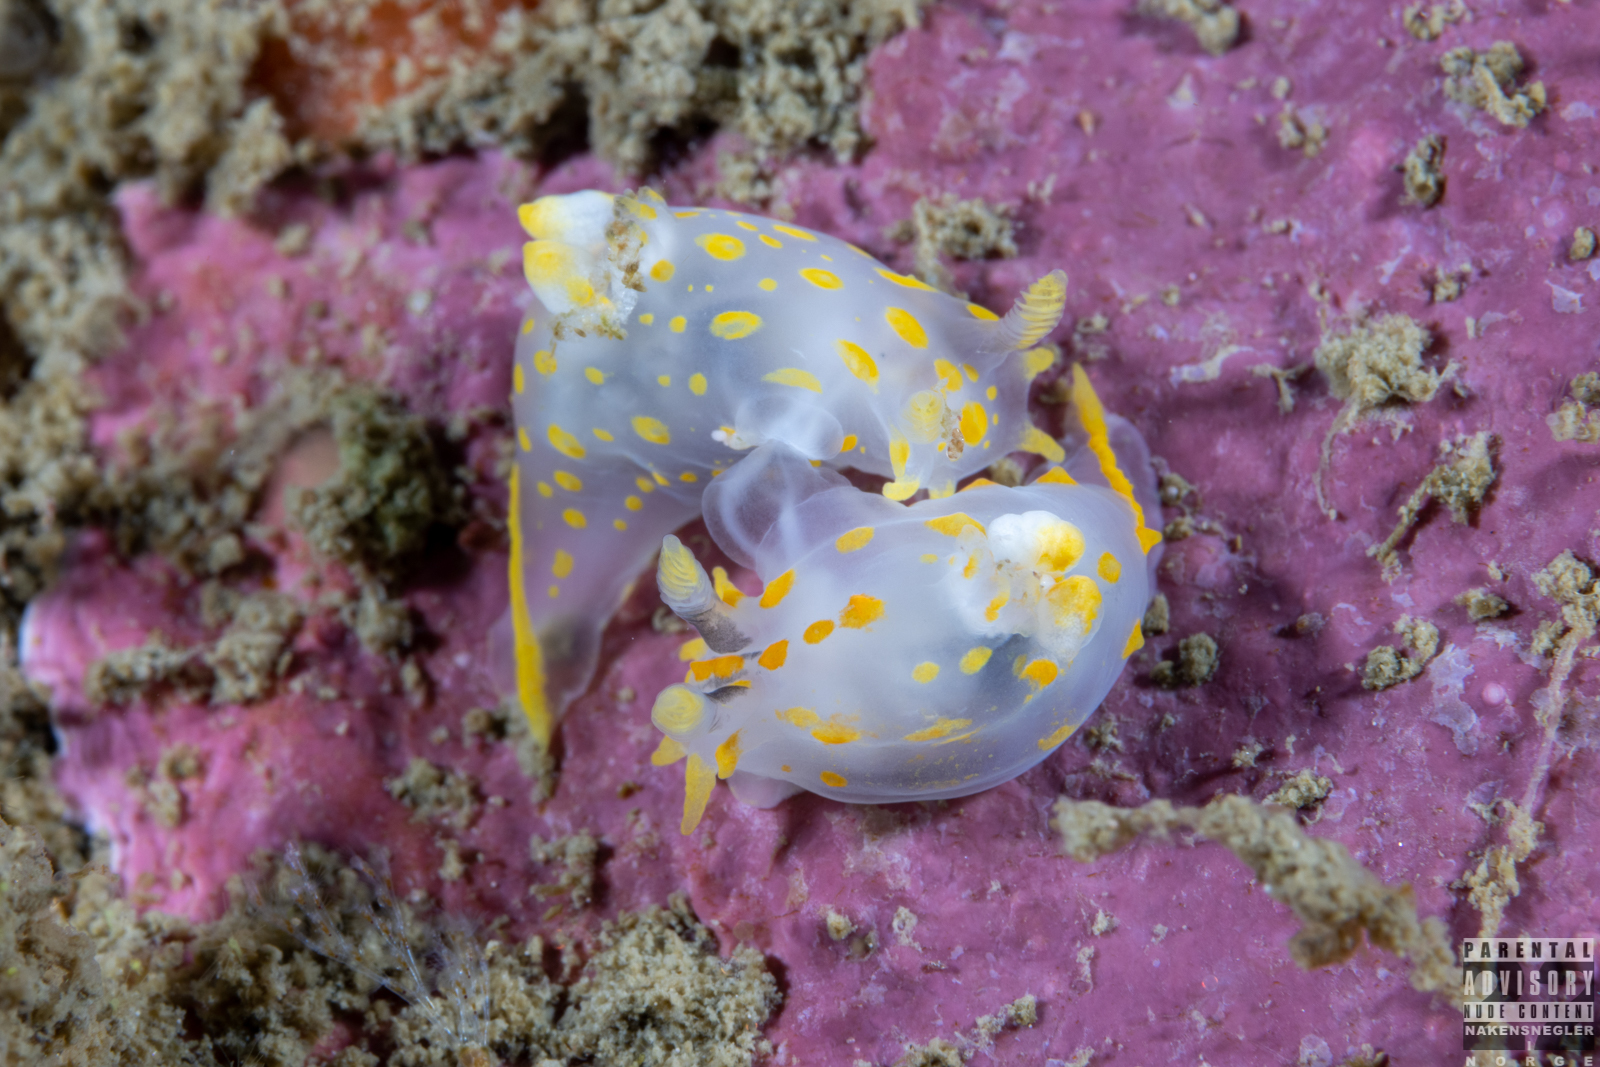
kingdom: Animalia
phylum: Mollusca
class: Gastropoda
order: Nudibranchia
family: Polyceridae
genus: Polycera
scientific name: Polycera quadrilineata
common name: Four-striped polycera
